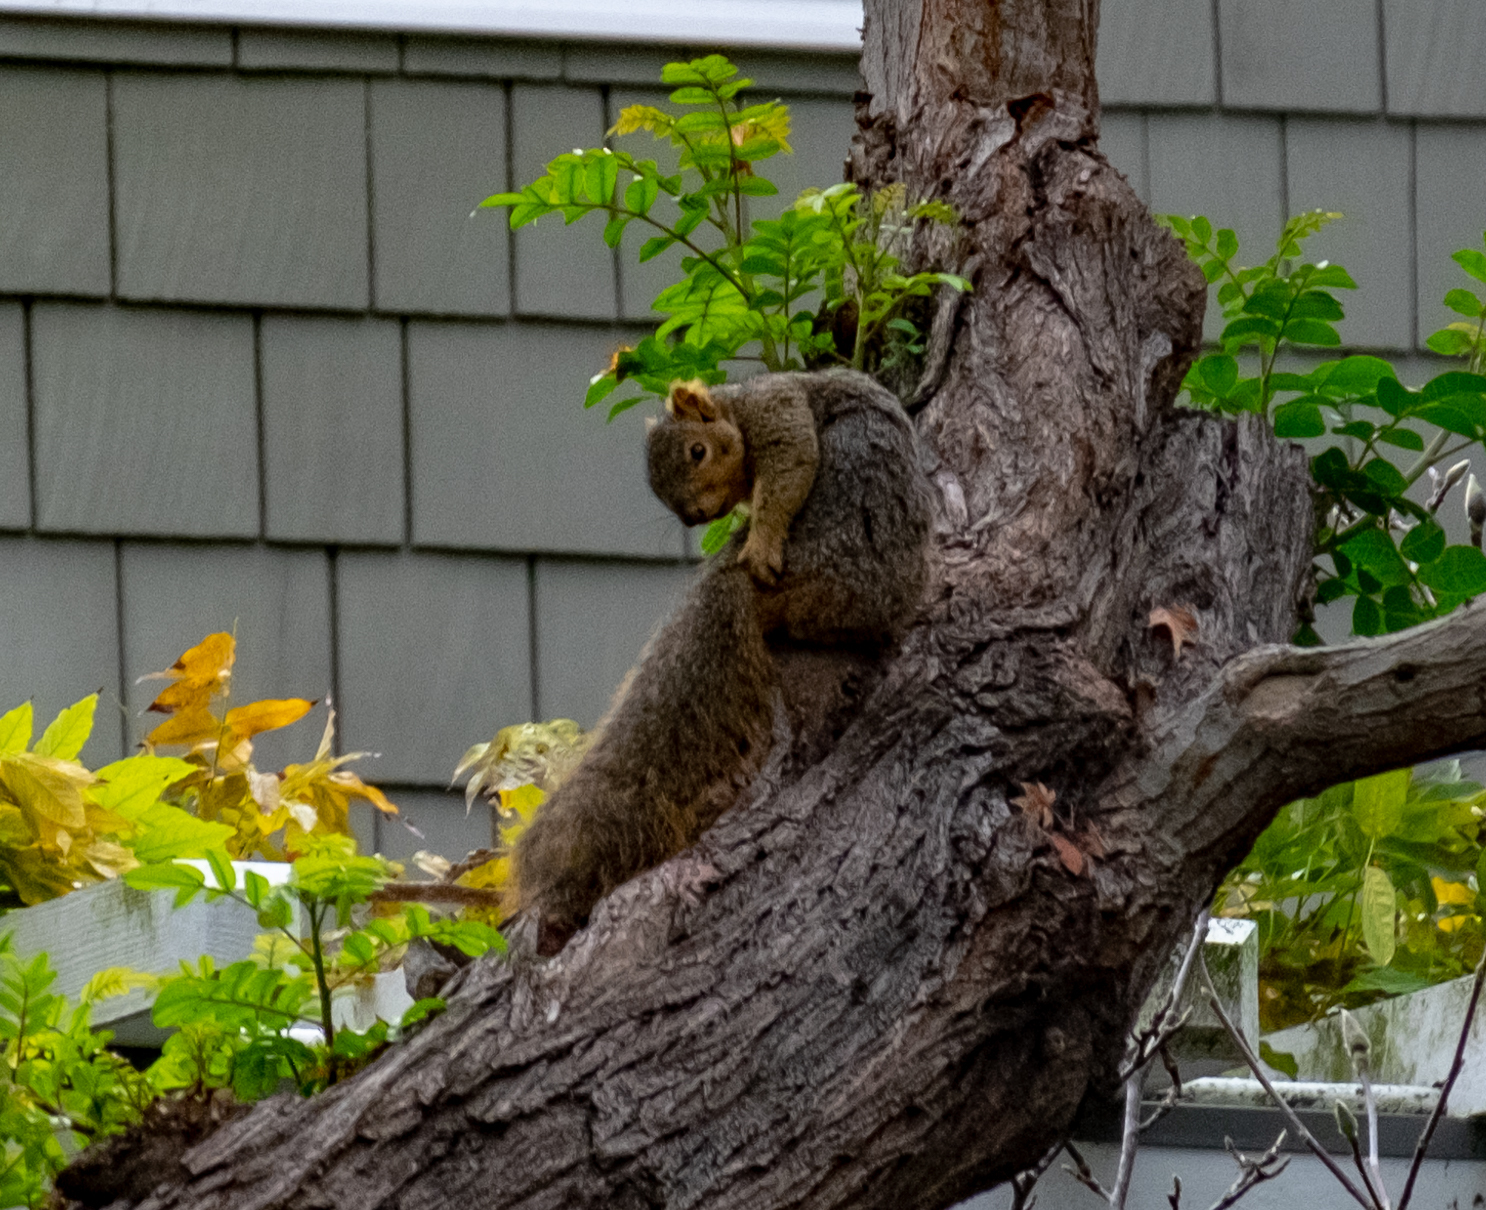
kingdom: Animalia
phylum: Chordata
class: Mammalia
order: Rodentia
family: Sciuridae
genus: Sciurus
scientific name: Sciurus niger
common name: Fox squirrel
